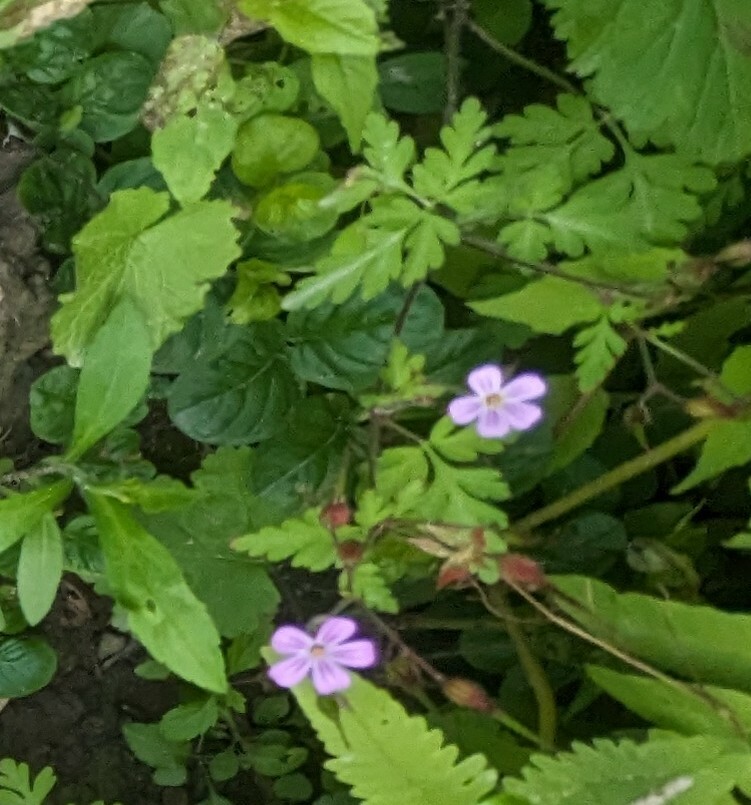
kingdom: Plantae
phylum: Tracheophyta
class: Magnoliopsida
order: Geraniales
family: Geraniaceae
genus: Geranium
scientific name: Geranium robertianum
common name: Herb-robert
